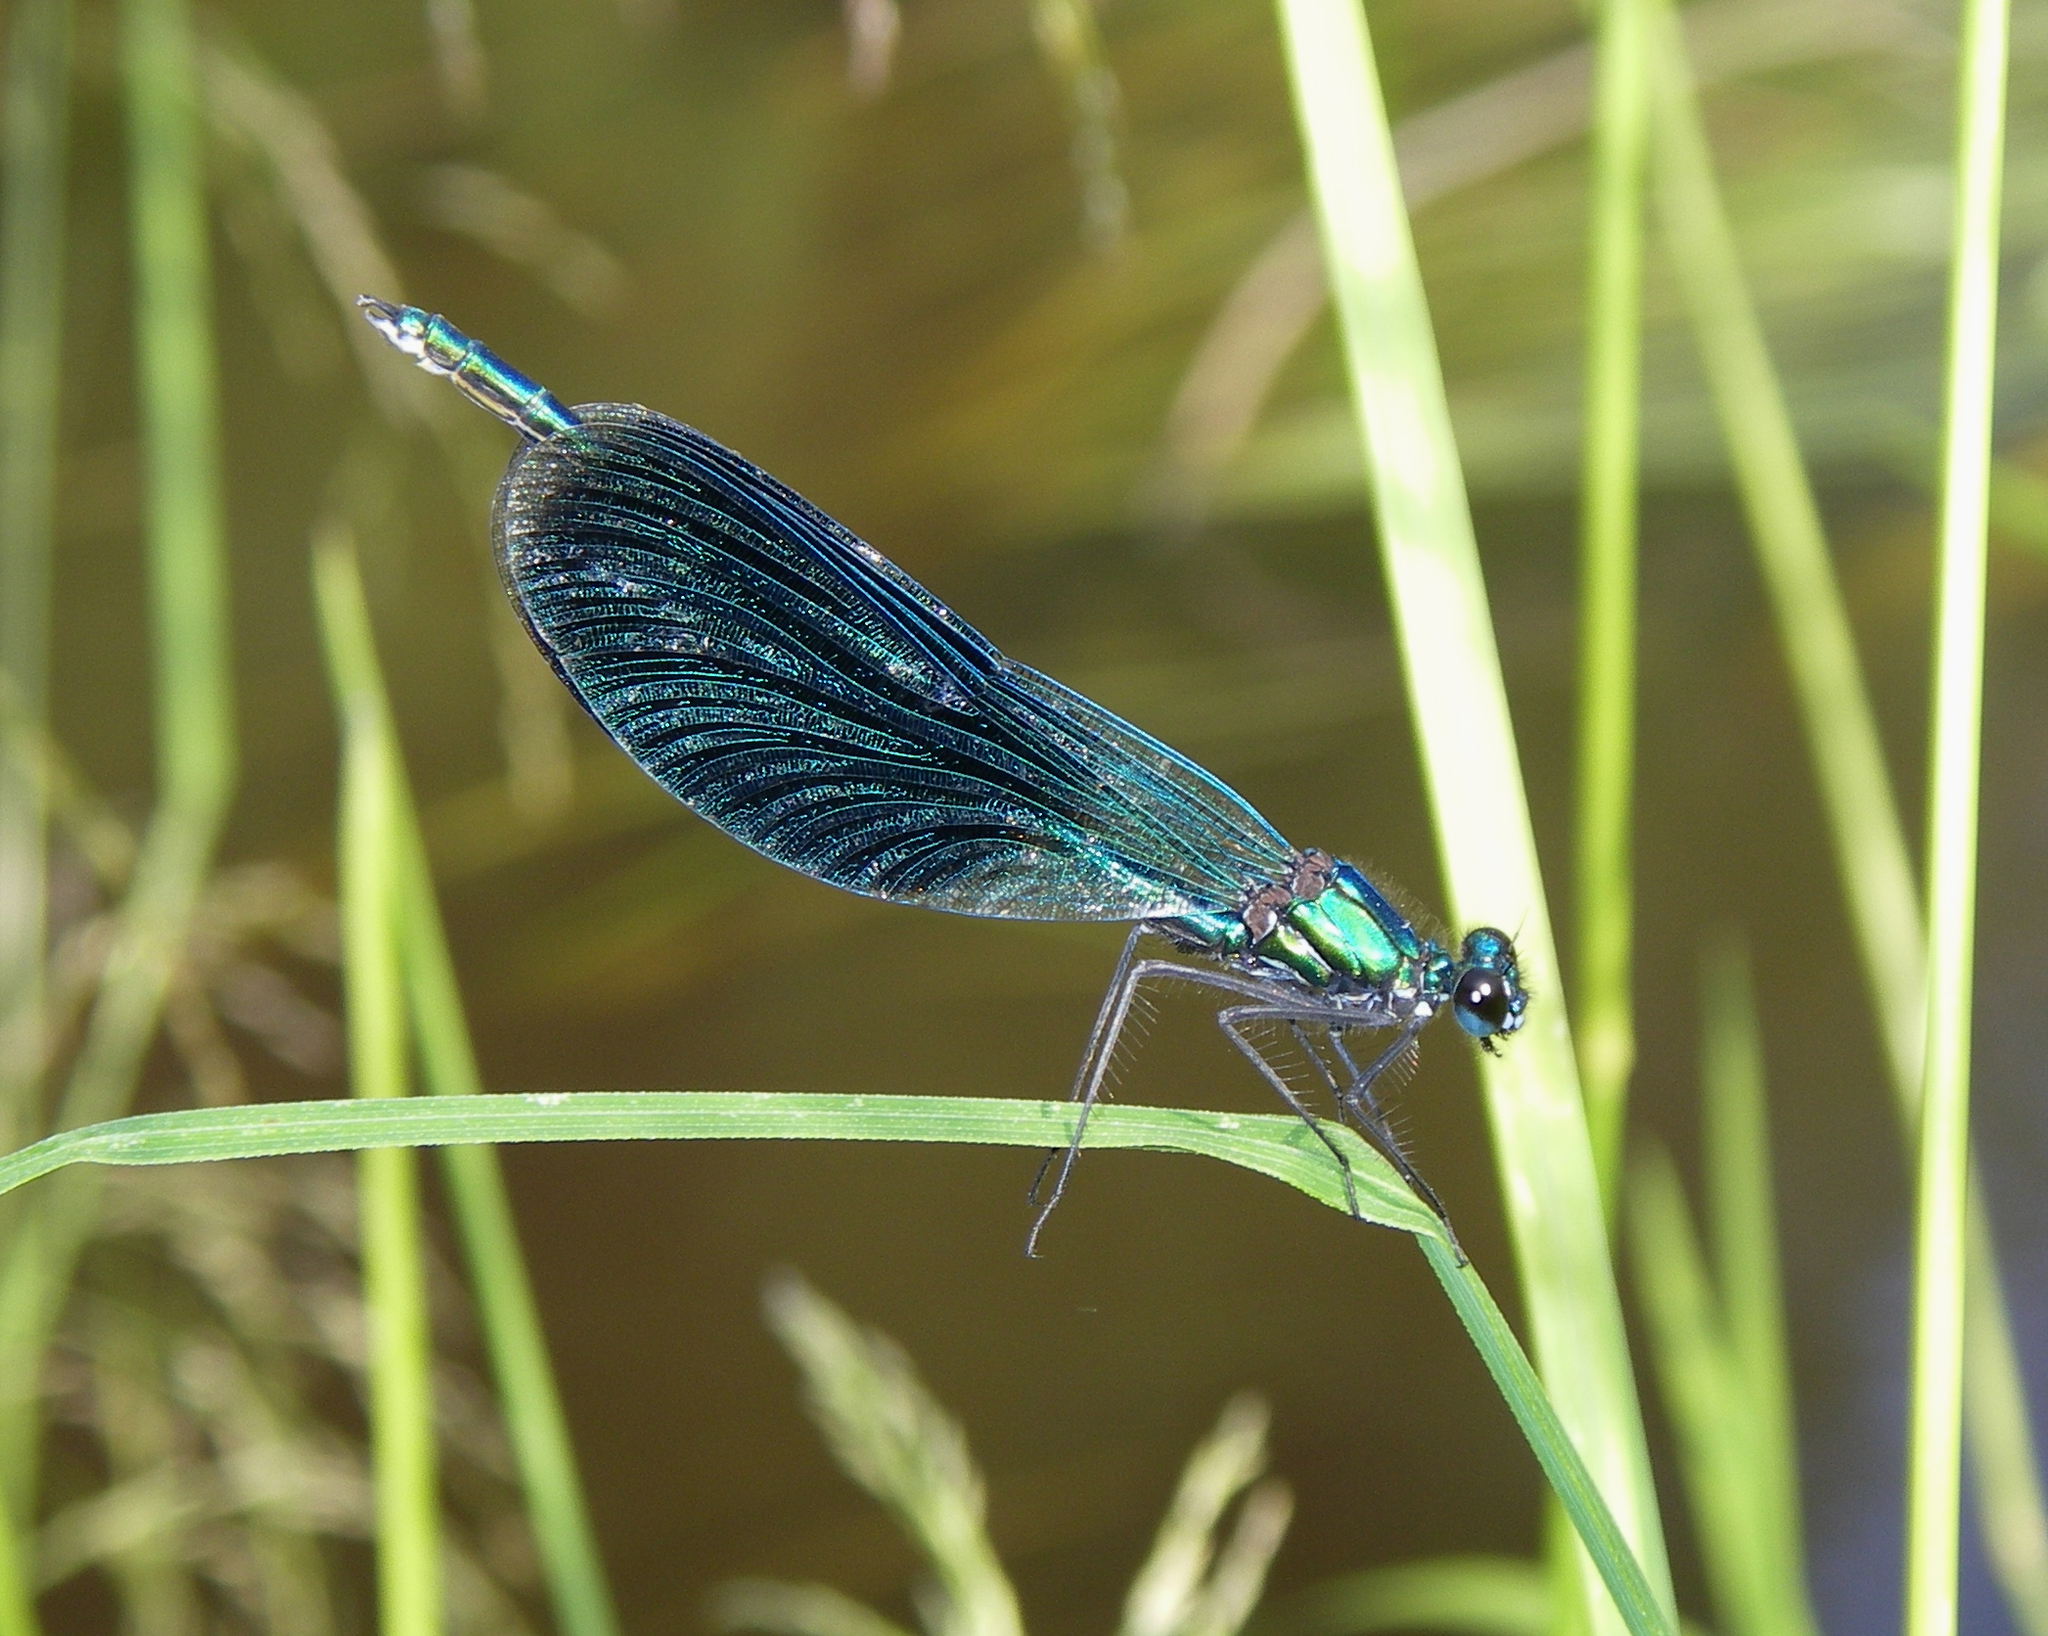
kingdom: Animalia
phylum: Arthropoda
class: Insecta
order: Odonata
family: Calopterygidae
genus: Calopteryx
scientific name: Calopteryx splendens
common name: Banded demoiselle
